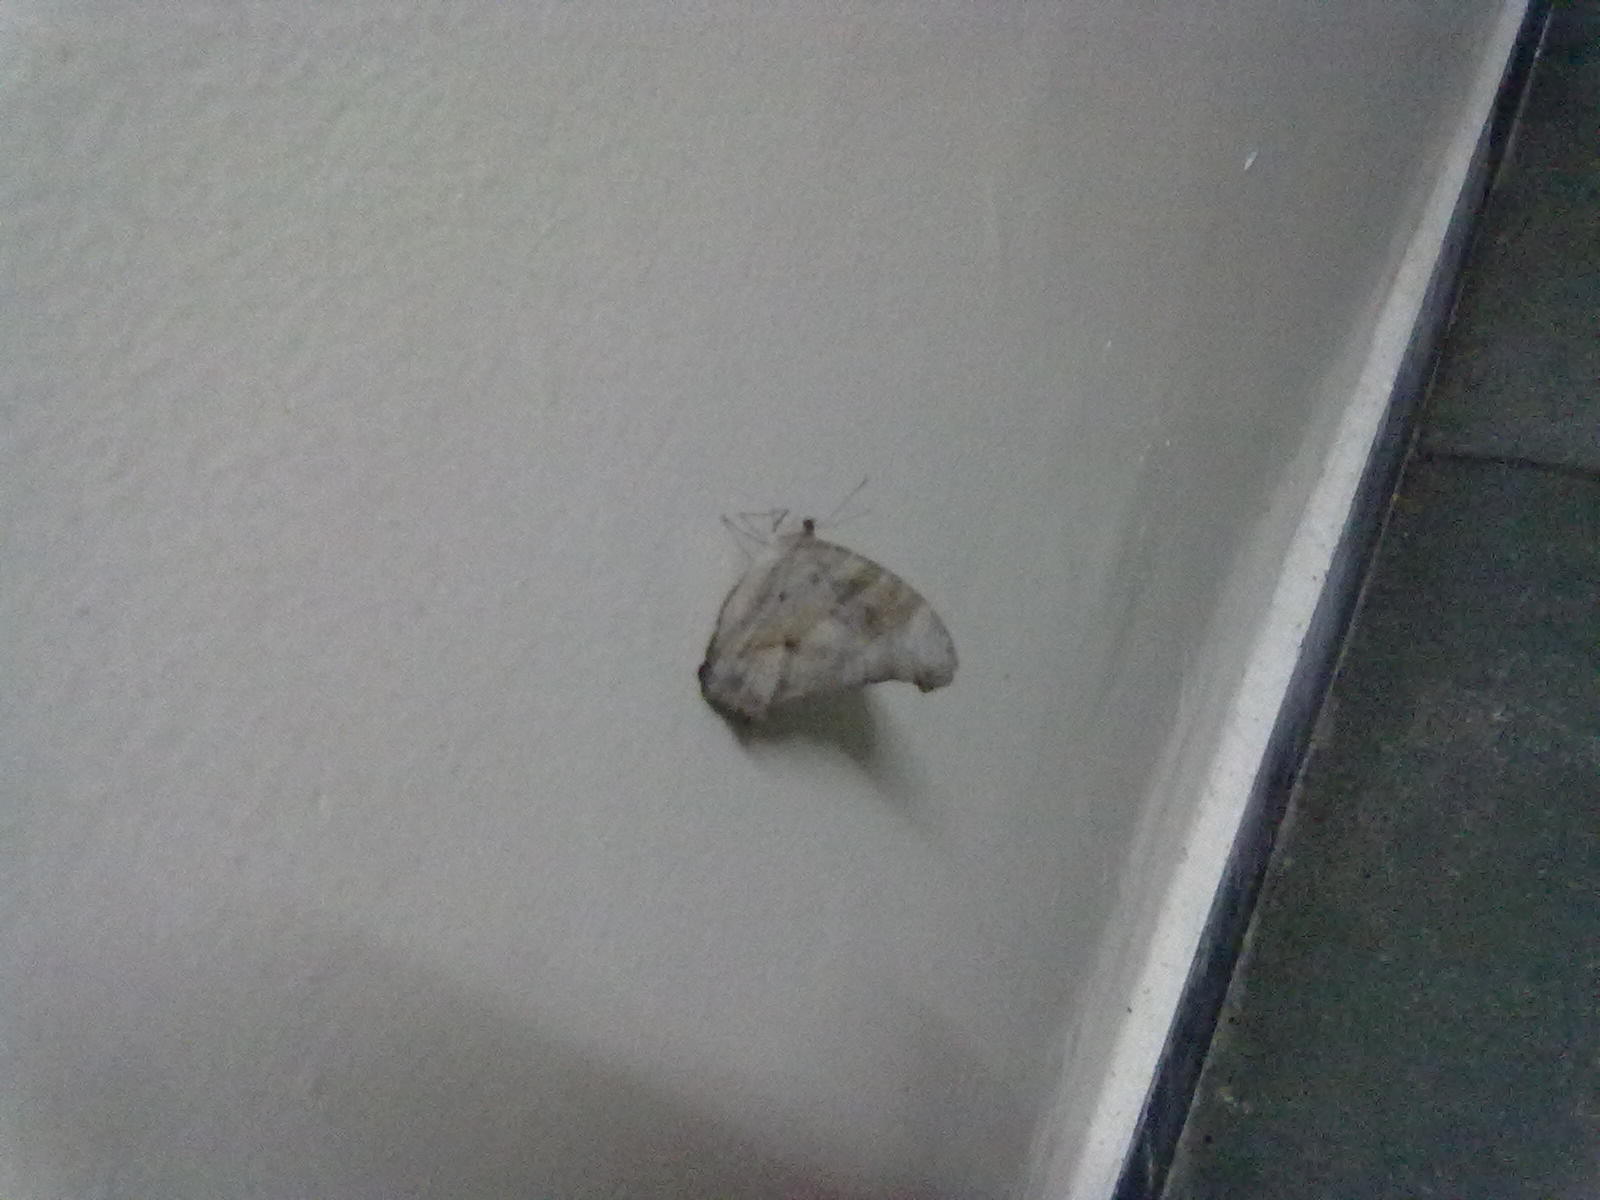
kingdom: Animalia
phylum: Arthropoda
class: Insecta
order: Lepidoptera
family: Nymphalidae
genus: Melanitis
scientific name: Melanitis leda
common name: Twilight brown
